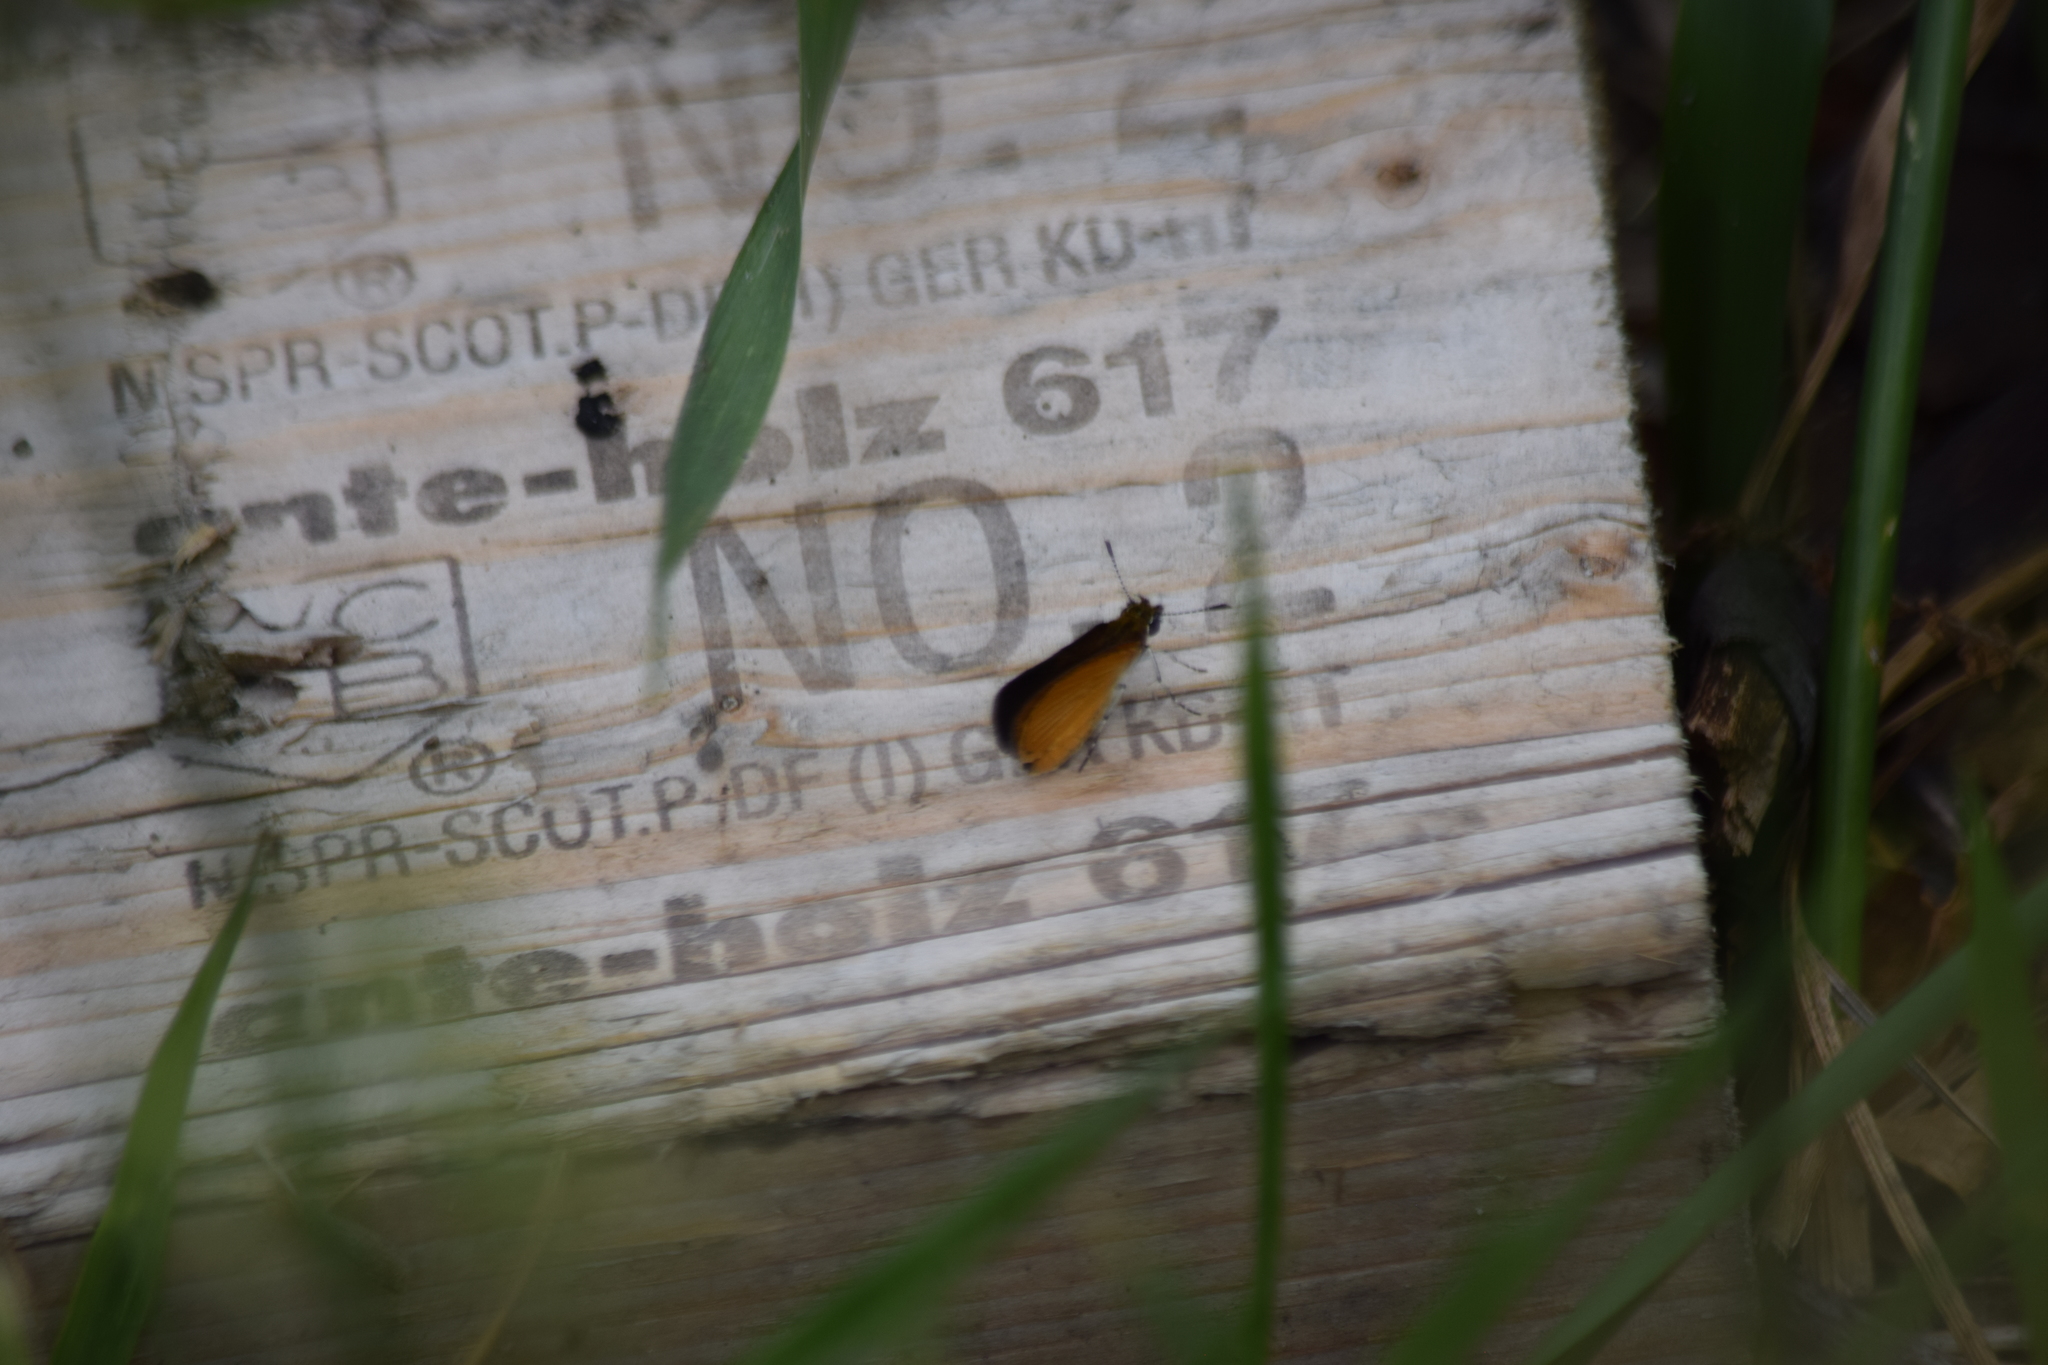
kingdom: Animalia
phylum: Arthropoda
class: Insecta
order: Lepidoptera
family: Hesperiidae
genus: Ancyloxypha
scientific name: Ancyloxypha numitor
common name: Least skipper
